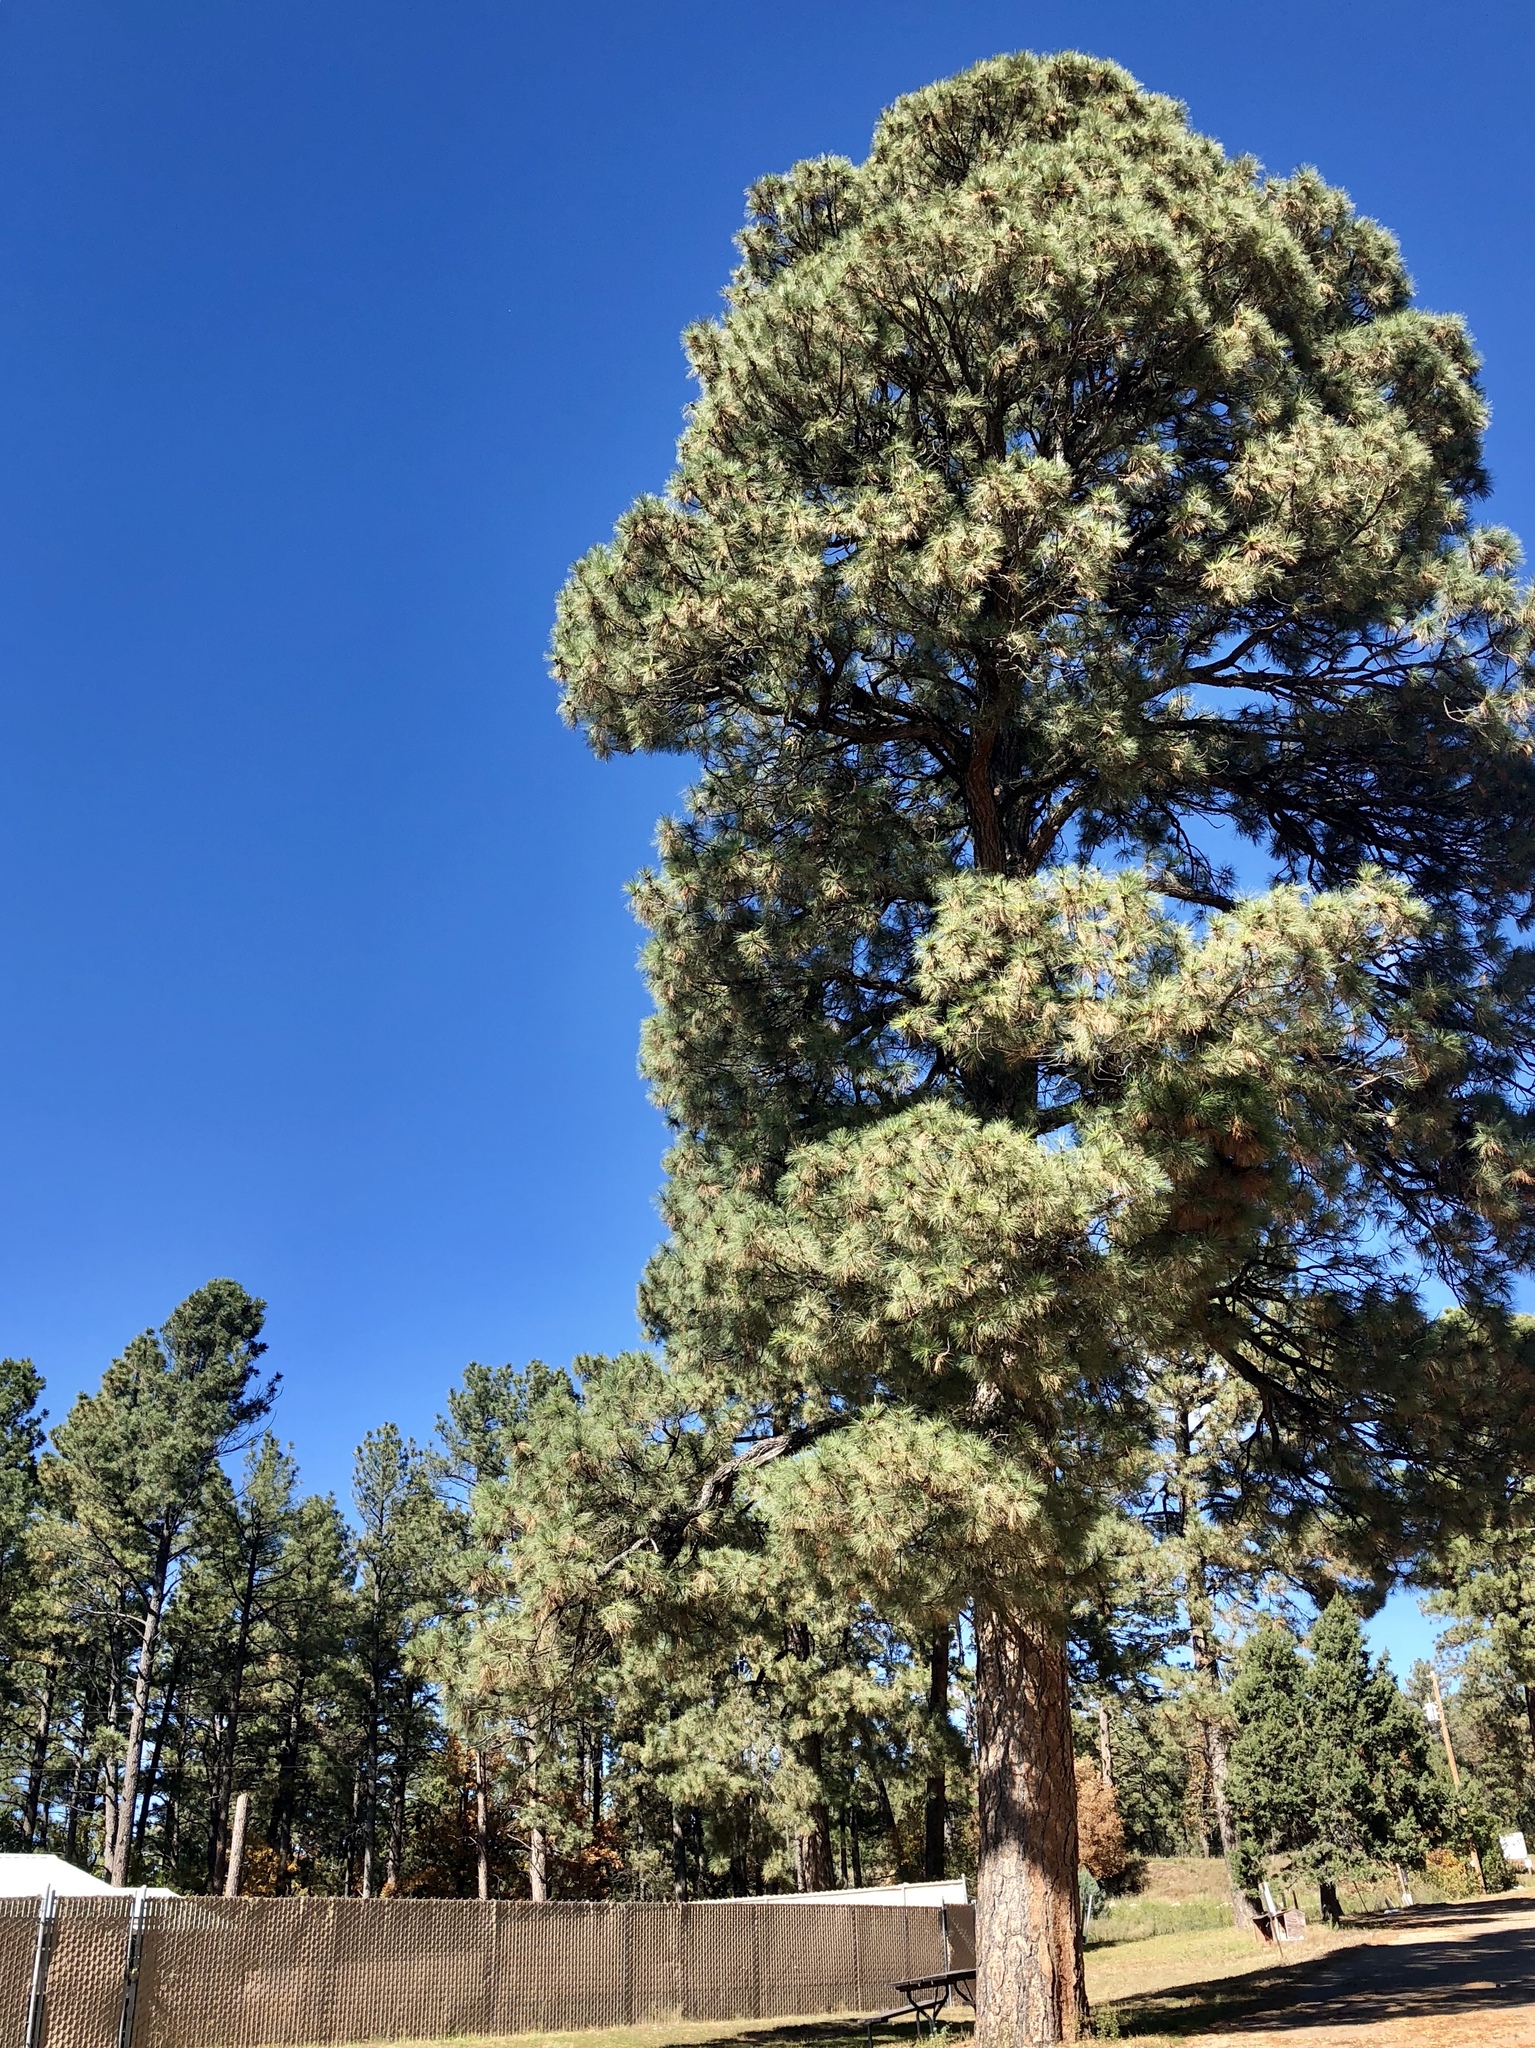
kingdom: Plantae
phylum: Tracheophyta
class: Pinopsida
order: Pinales
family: Pinaceae
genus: Pinus
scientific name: Pinus ponderosa
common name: Western yellow-pine
